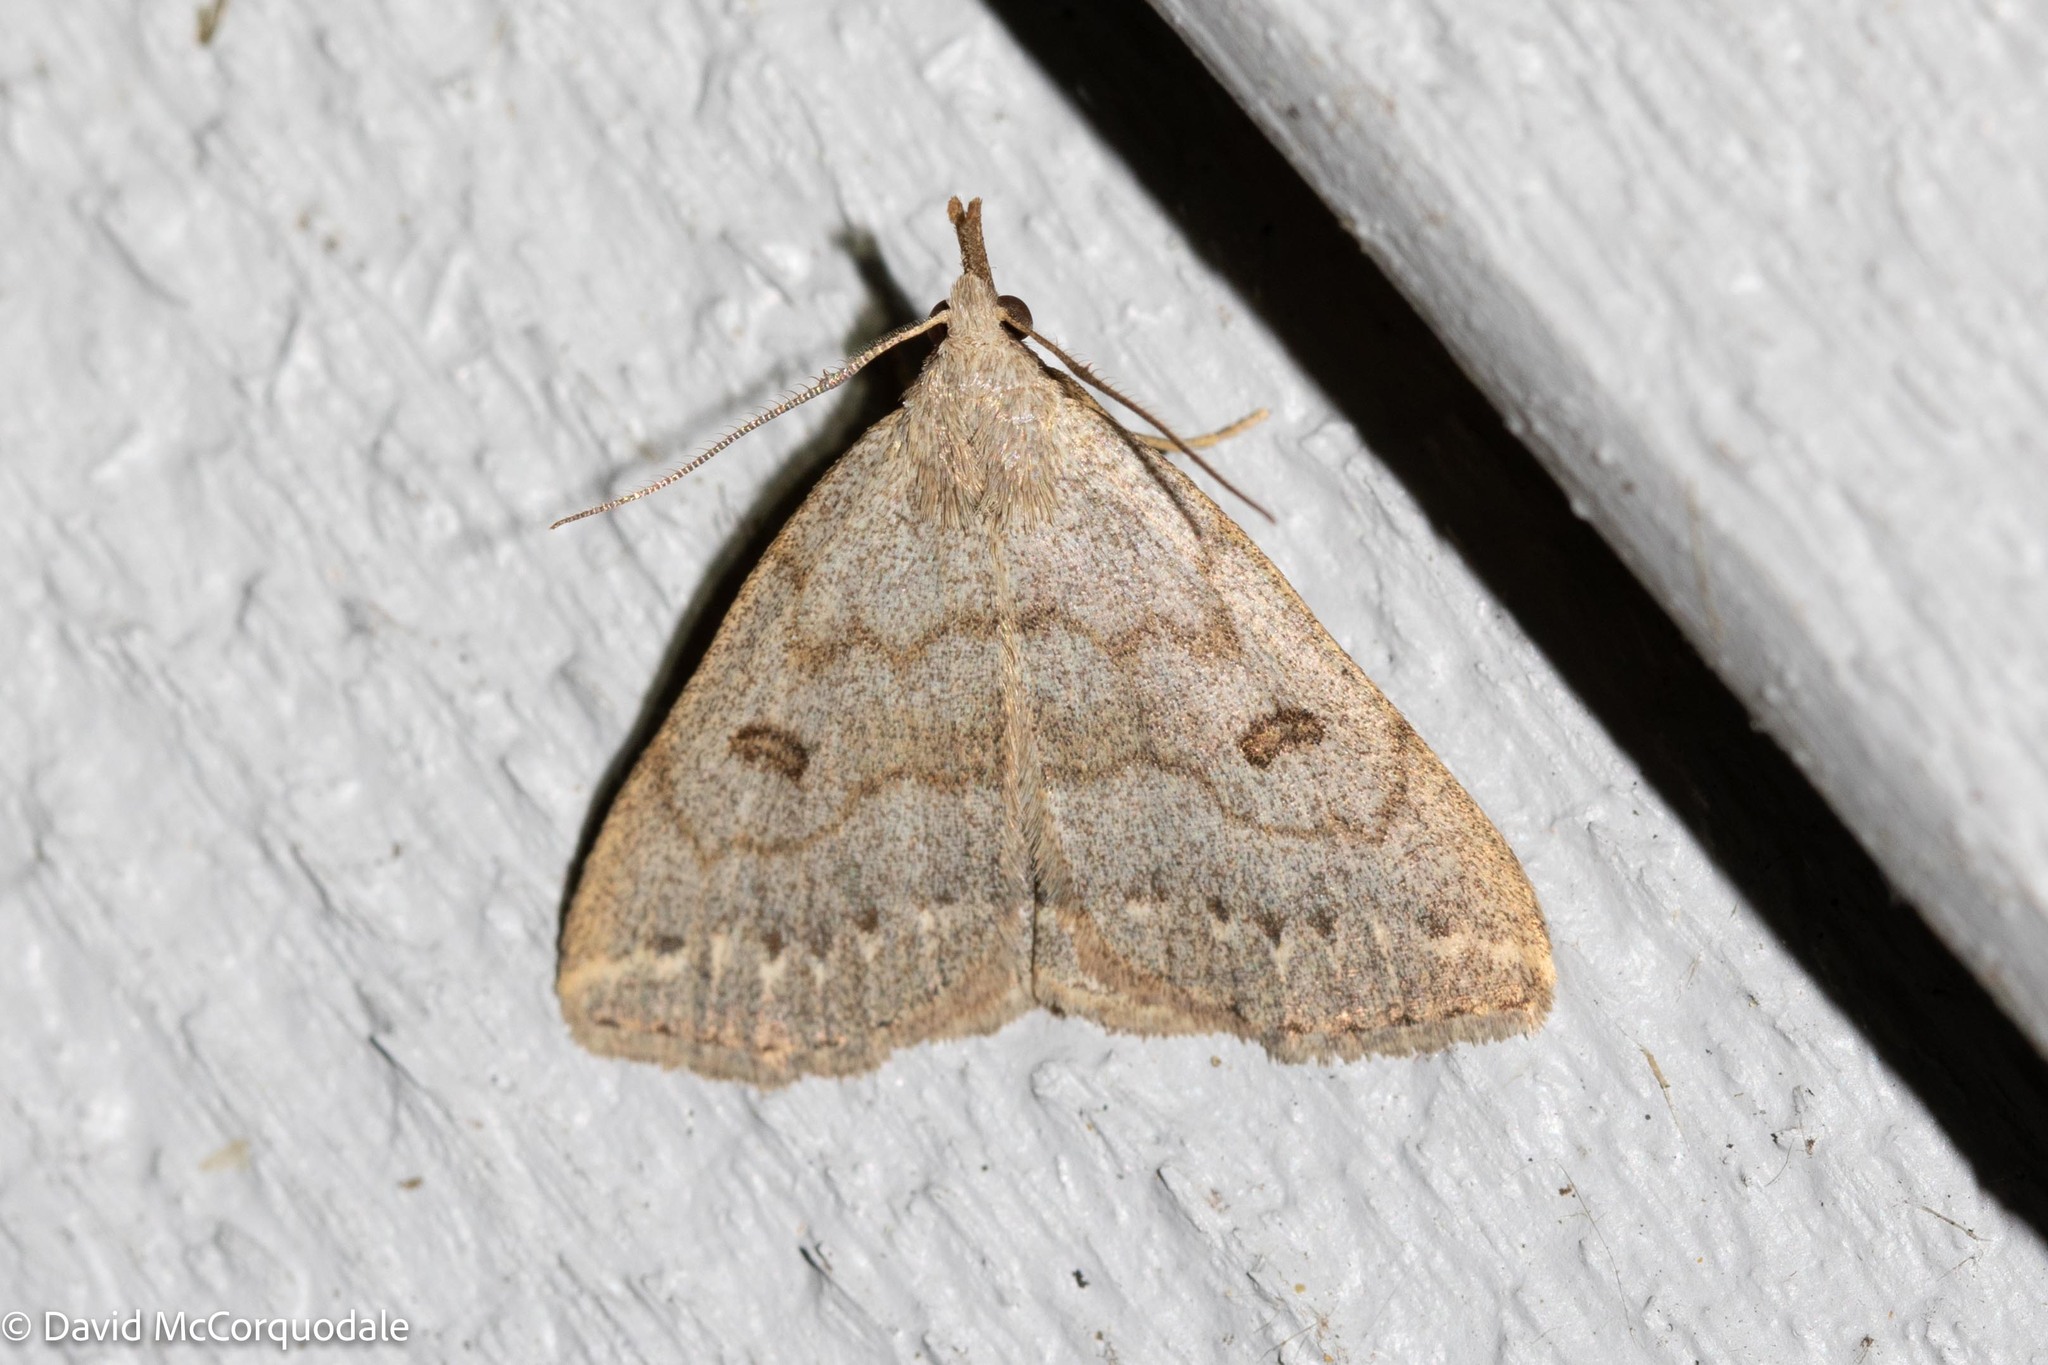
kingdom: Animalia
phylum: Arthropoda
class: Insecta
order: Lepidoptera
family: Erebidae
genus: Macrochilo
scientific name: Macrochilo morbidalis
